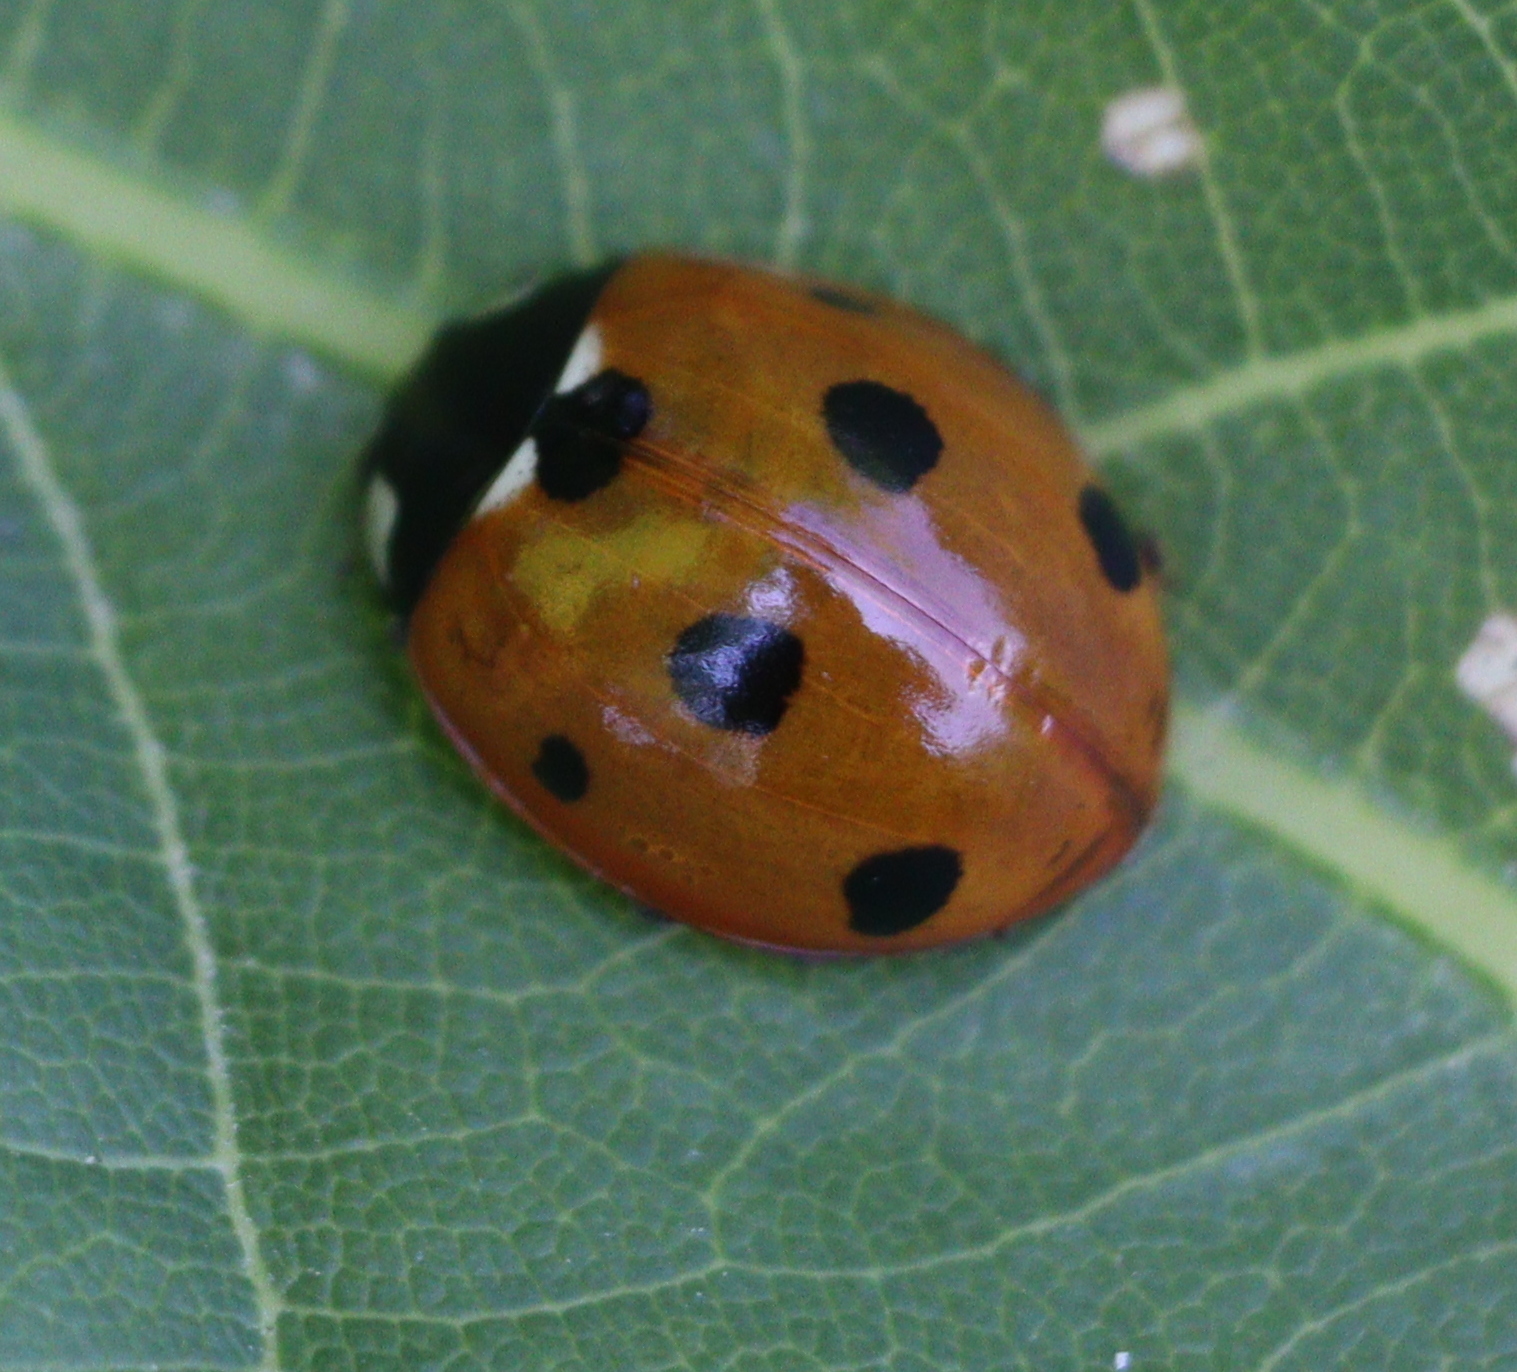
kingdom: Animalia
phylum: Arthropoda
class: Insecta
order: Coleoptera
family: Coccinellidae
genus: Coccinella
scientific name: Coccinella septempunctata
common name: Sevenspotted lady beetle
